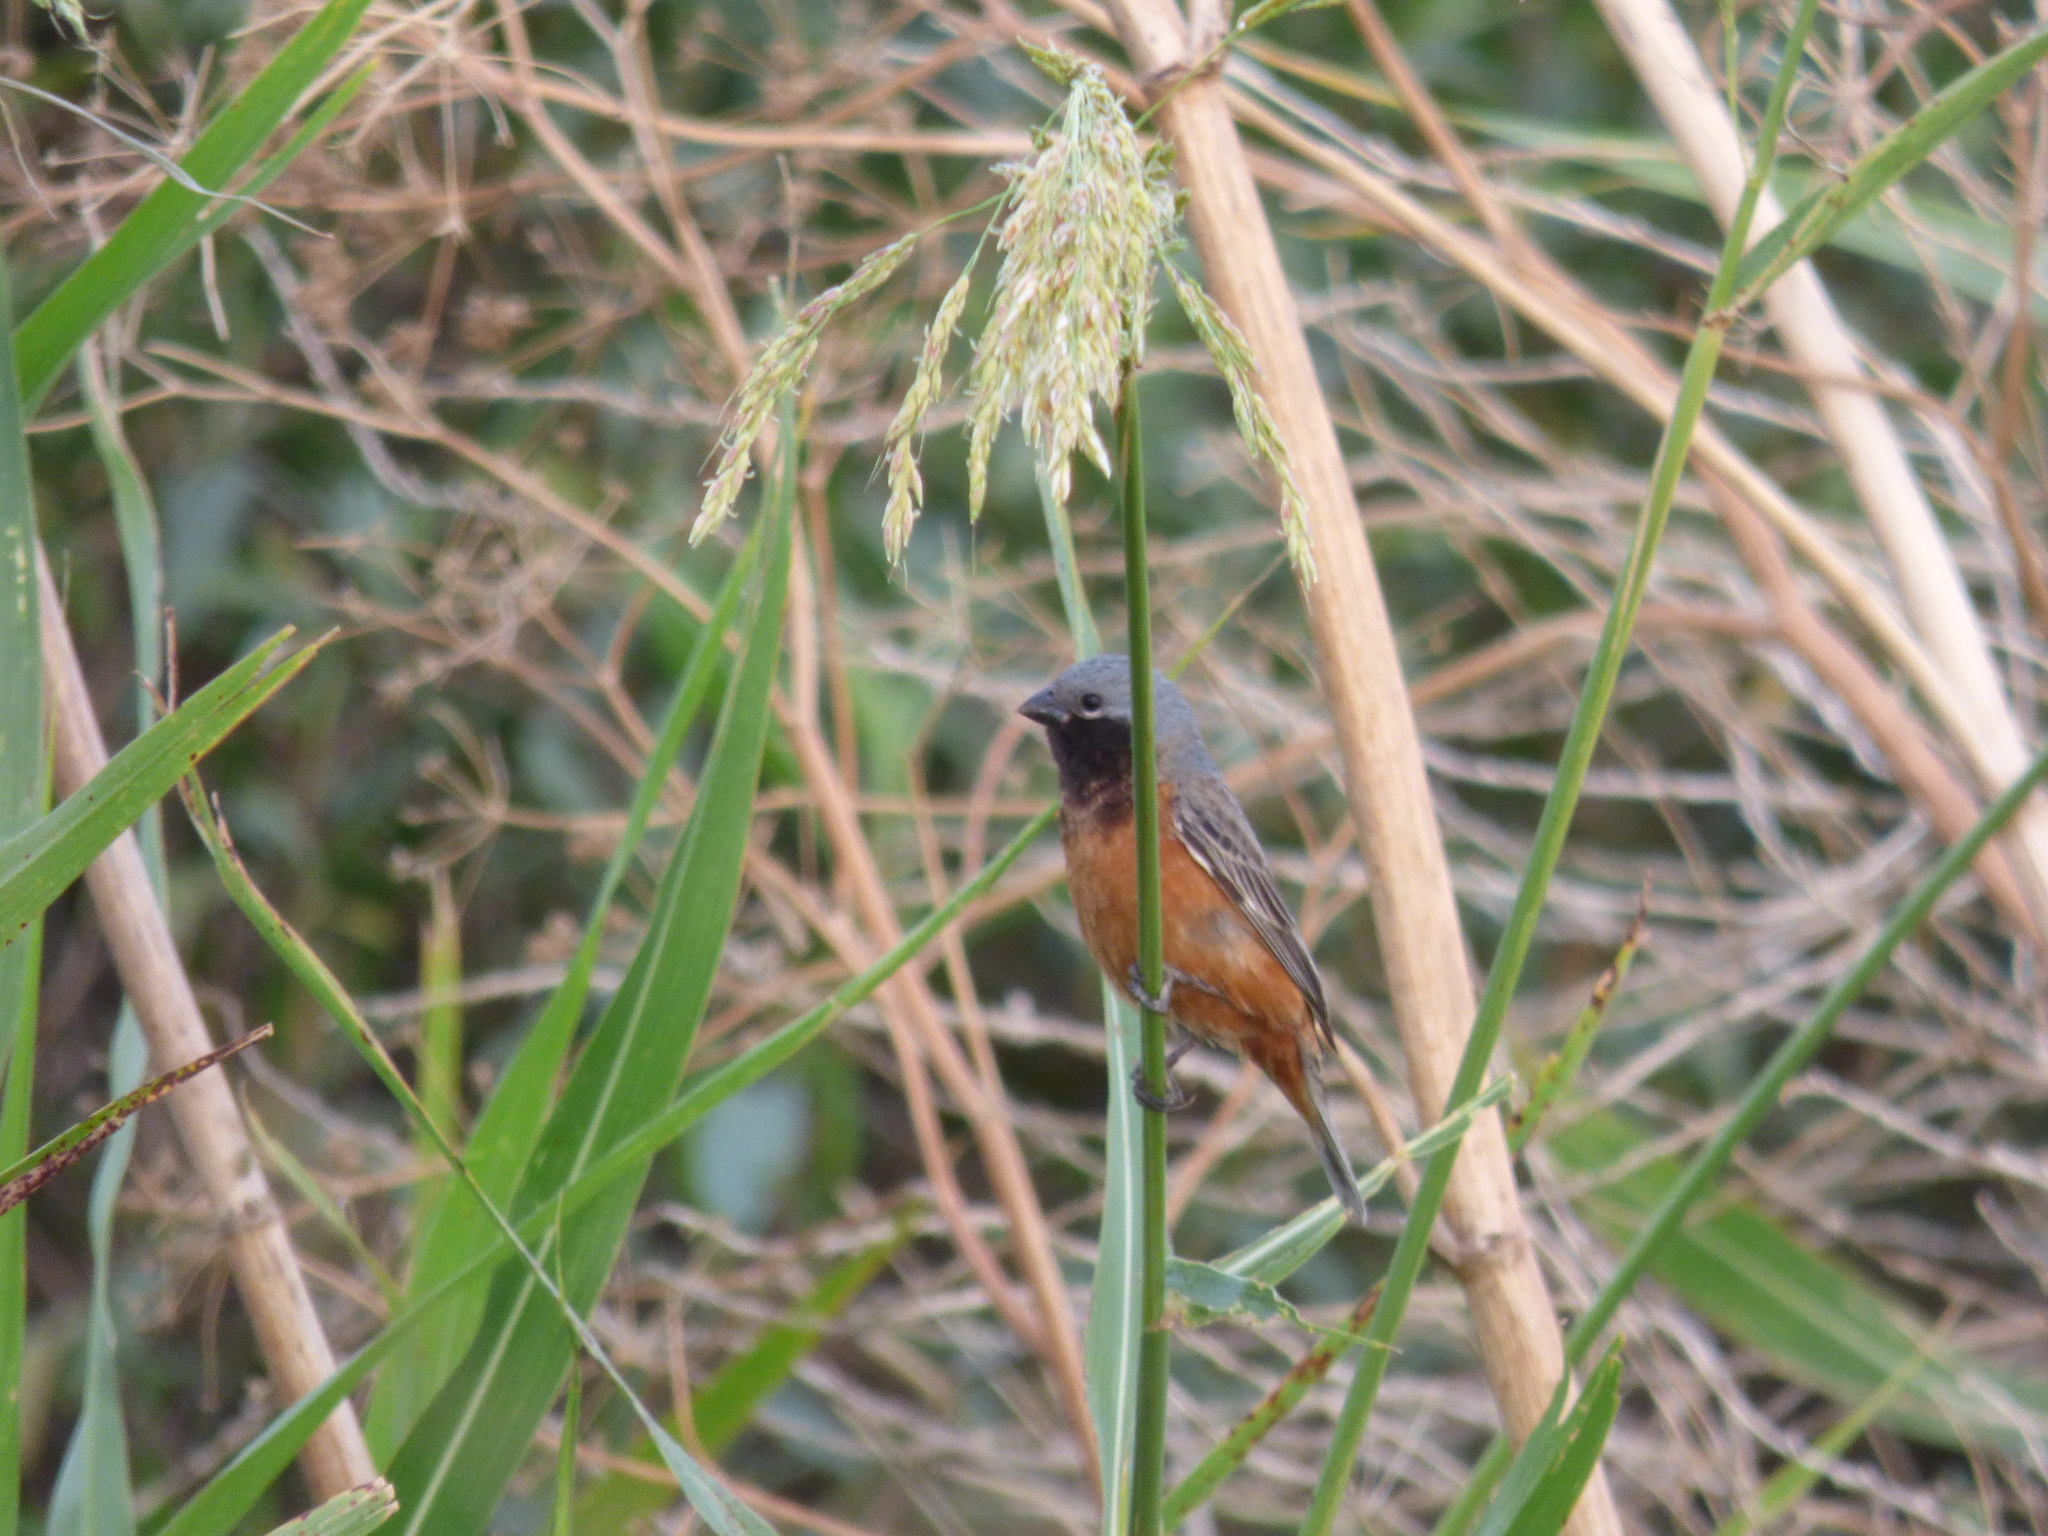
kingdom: Animalia
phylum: Chordata
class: Aves
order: Passeriformes
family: Thraupidae
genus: Sporophila
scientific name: Sporophila ruficollis
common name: Dark-throated seedeater
